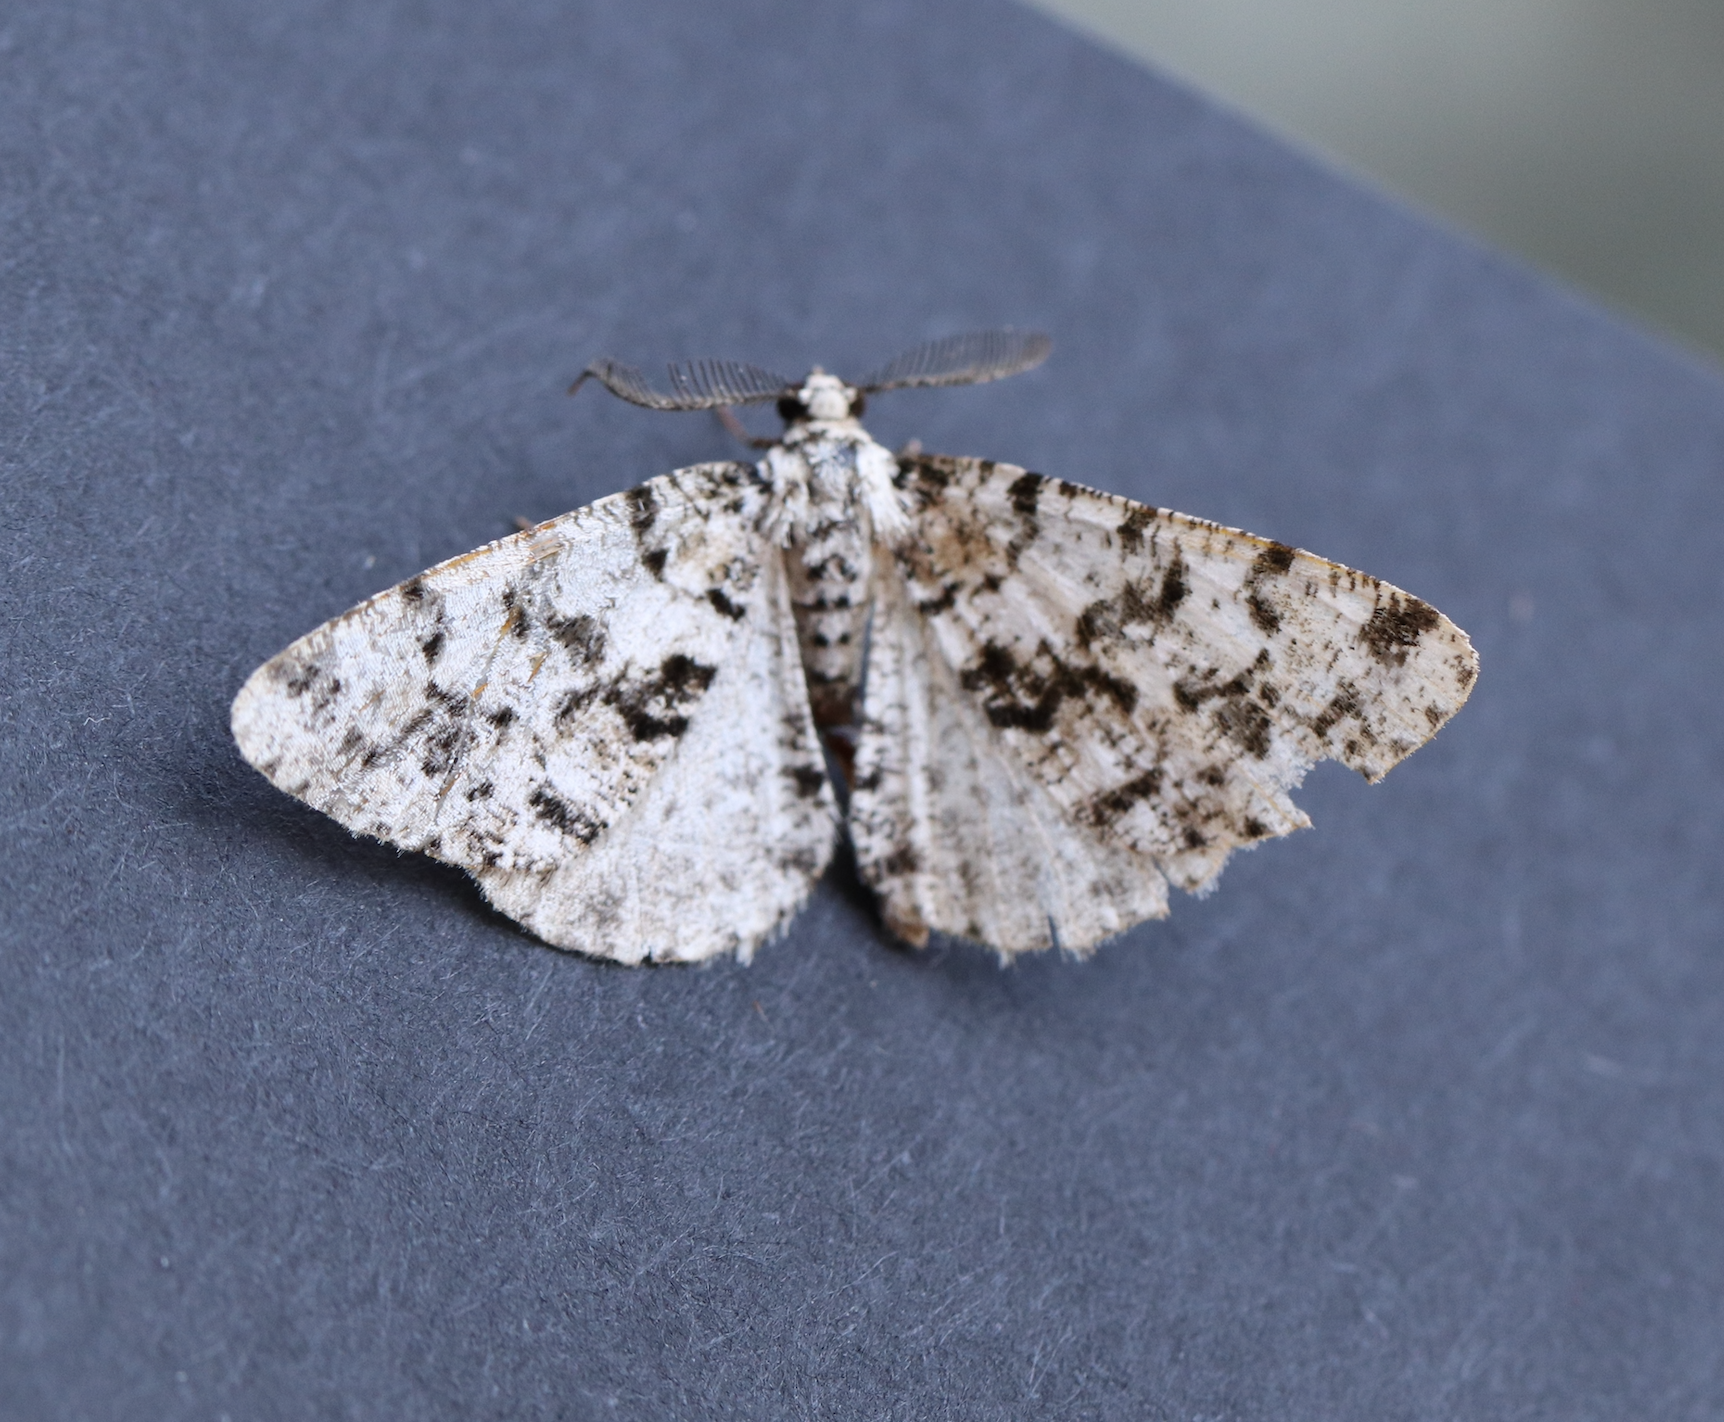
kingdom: Animalia
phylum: Arthropoda
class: Insecta
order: Lepidoptera
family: Geometridae
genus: Fagivorina
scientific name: Fagivorina arenaria
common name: Speckled beauty
